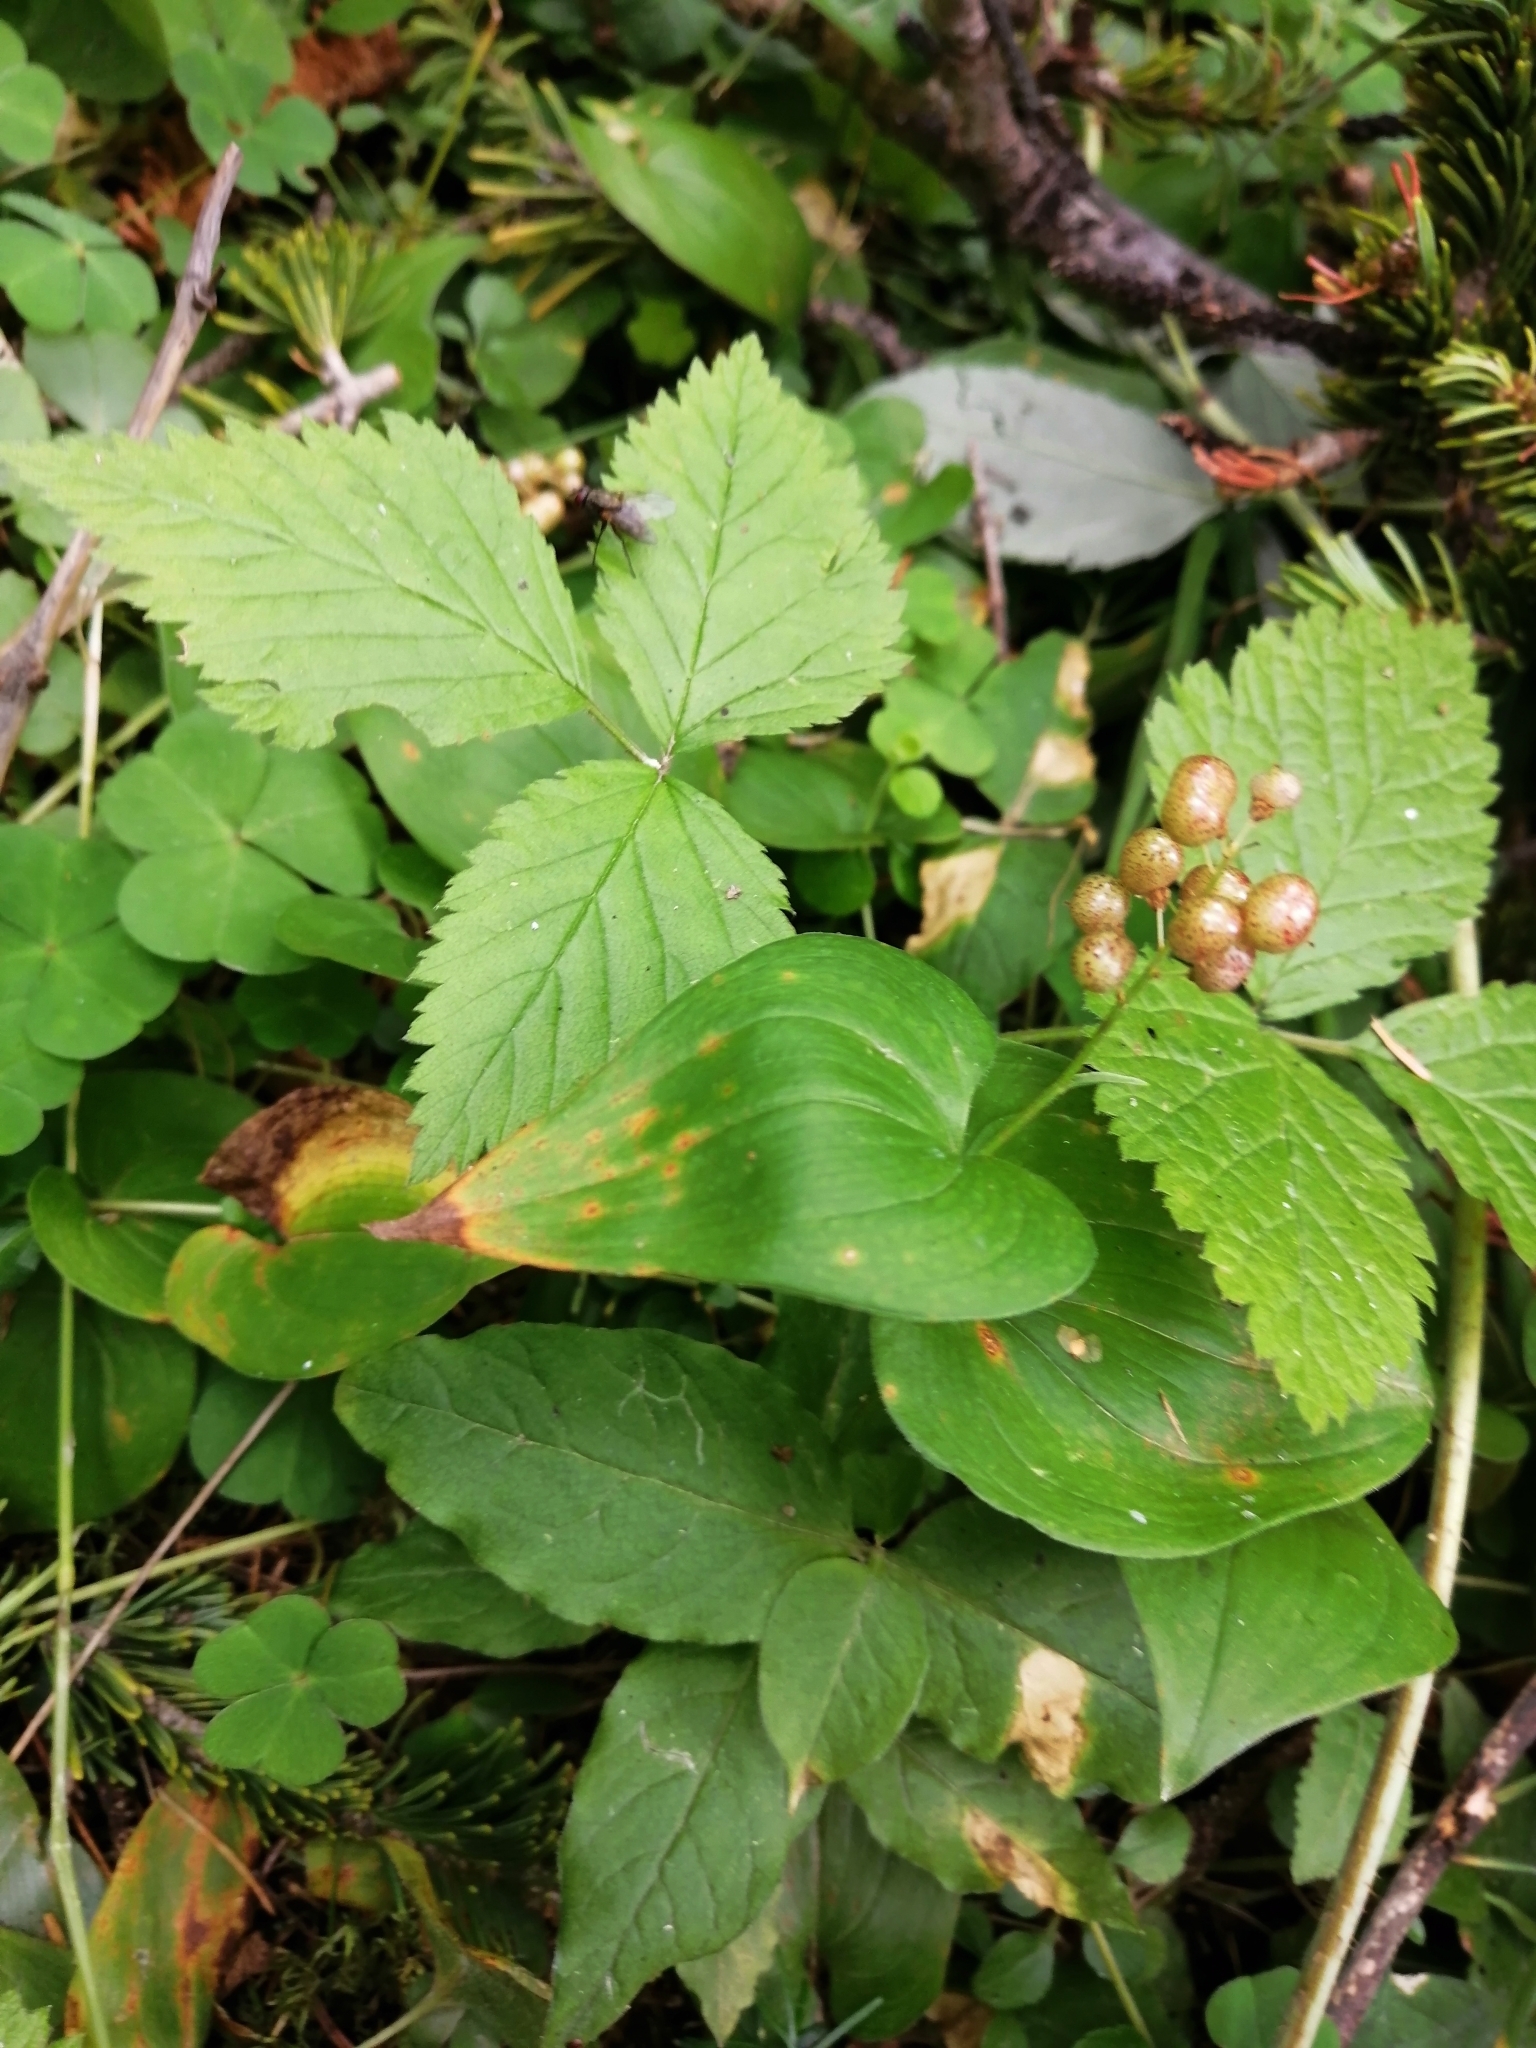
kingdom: Plantae
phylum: Tracheophyta
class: Liliopsida
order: Asparagales
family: Asparagaceae
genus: Maianthemum
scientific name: Maianthemum bifolium
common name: May lily
